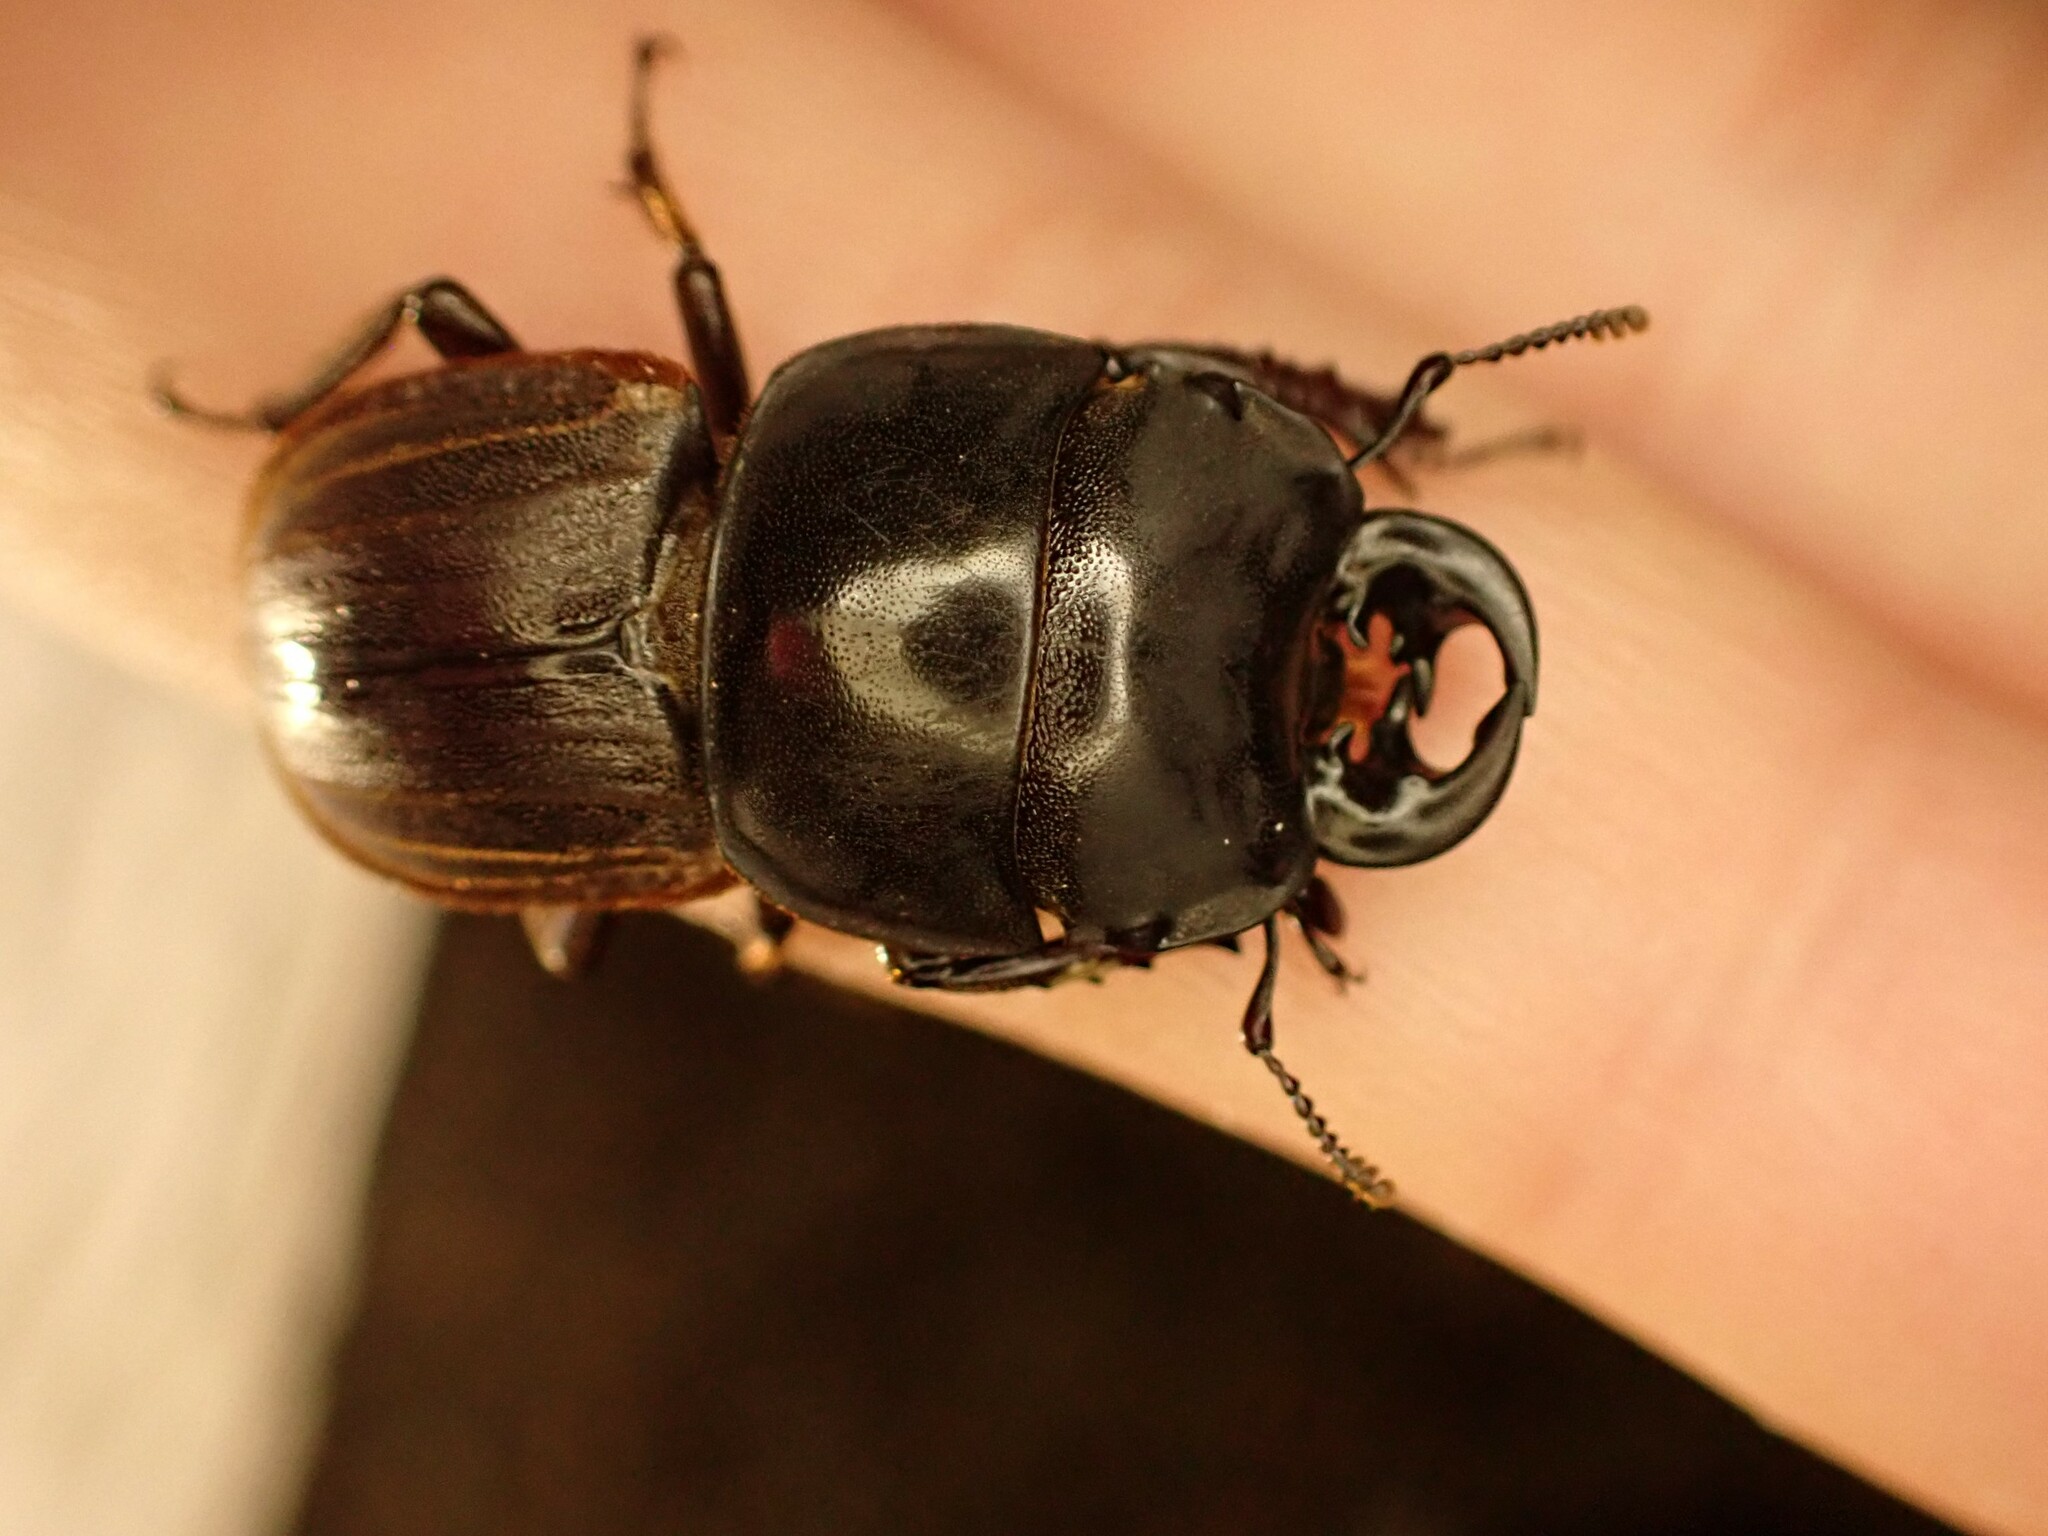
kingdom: Animalia
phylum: Arthropoda
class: Insecta
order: Coleoptera
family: Lucanidae
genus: Geodorcus
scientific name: Geodorcus helmsi
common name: Helm's stag beetle
